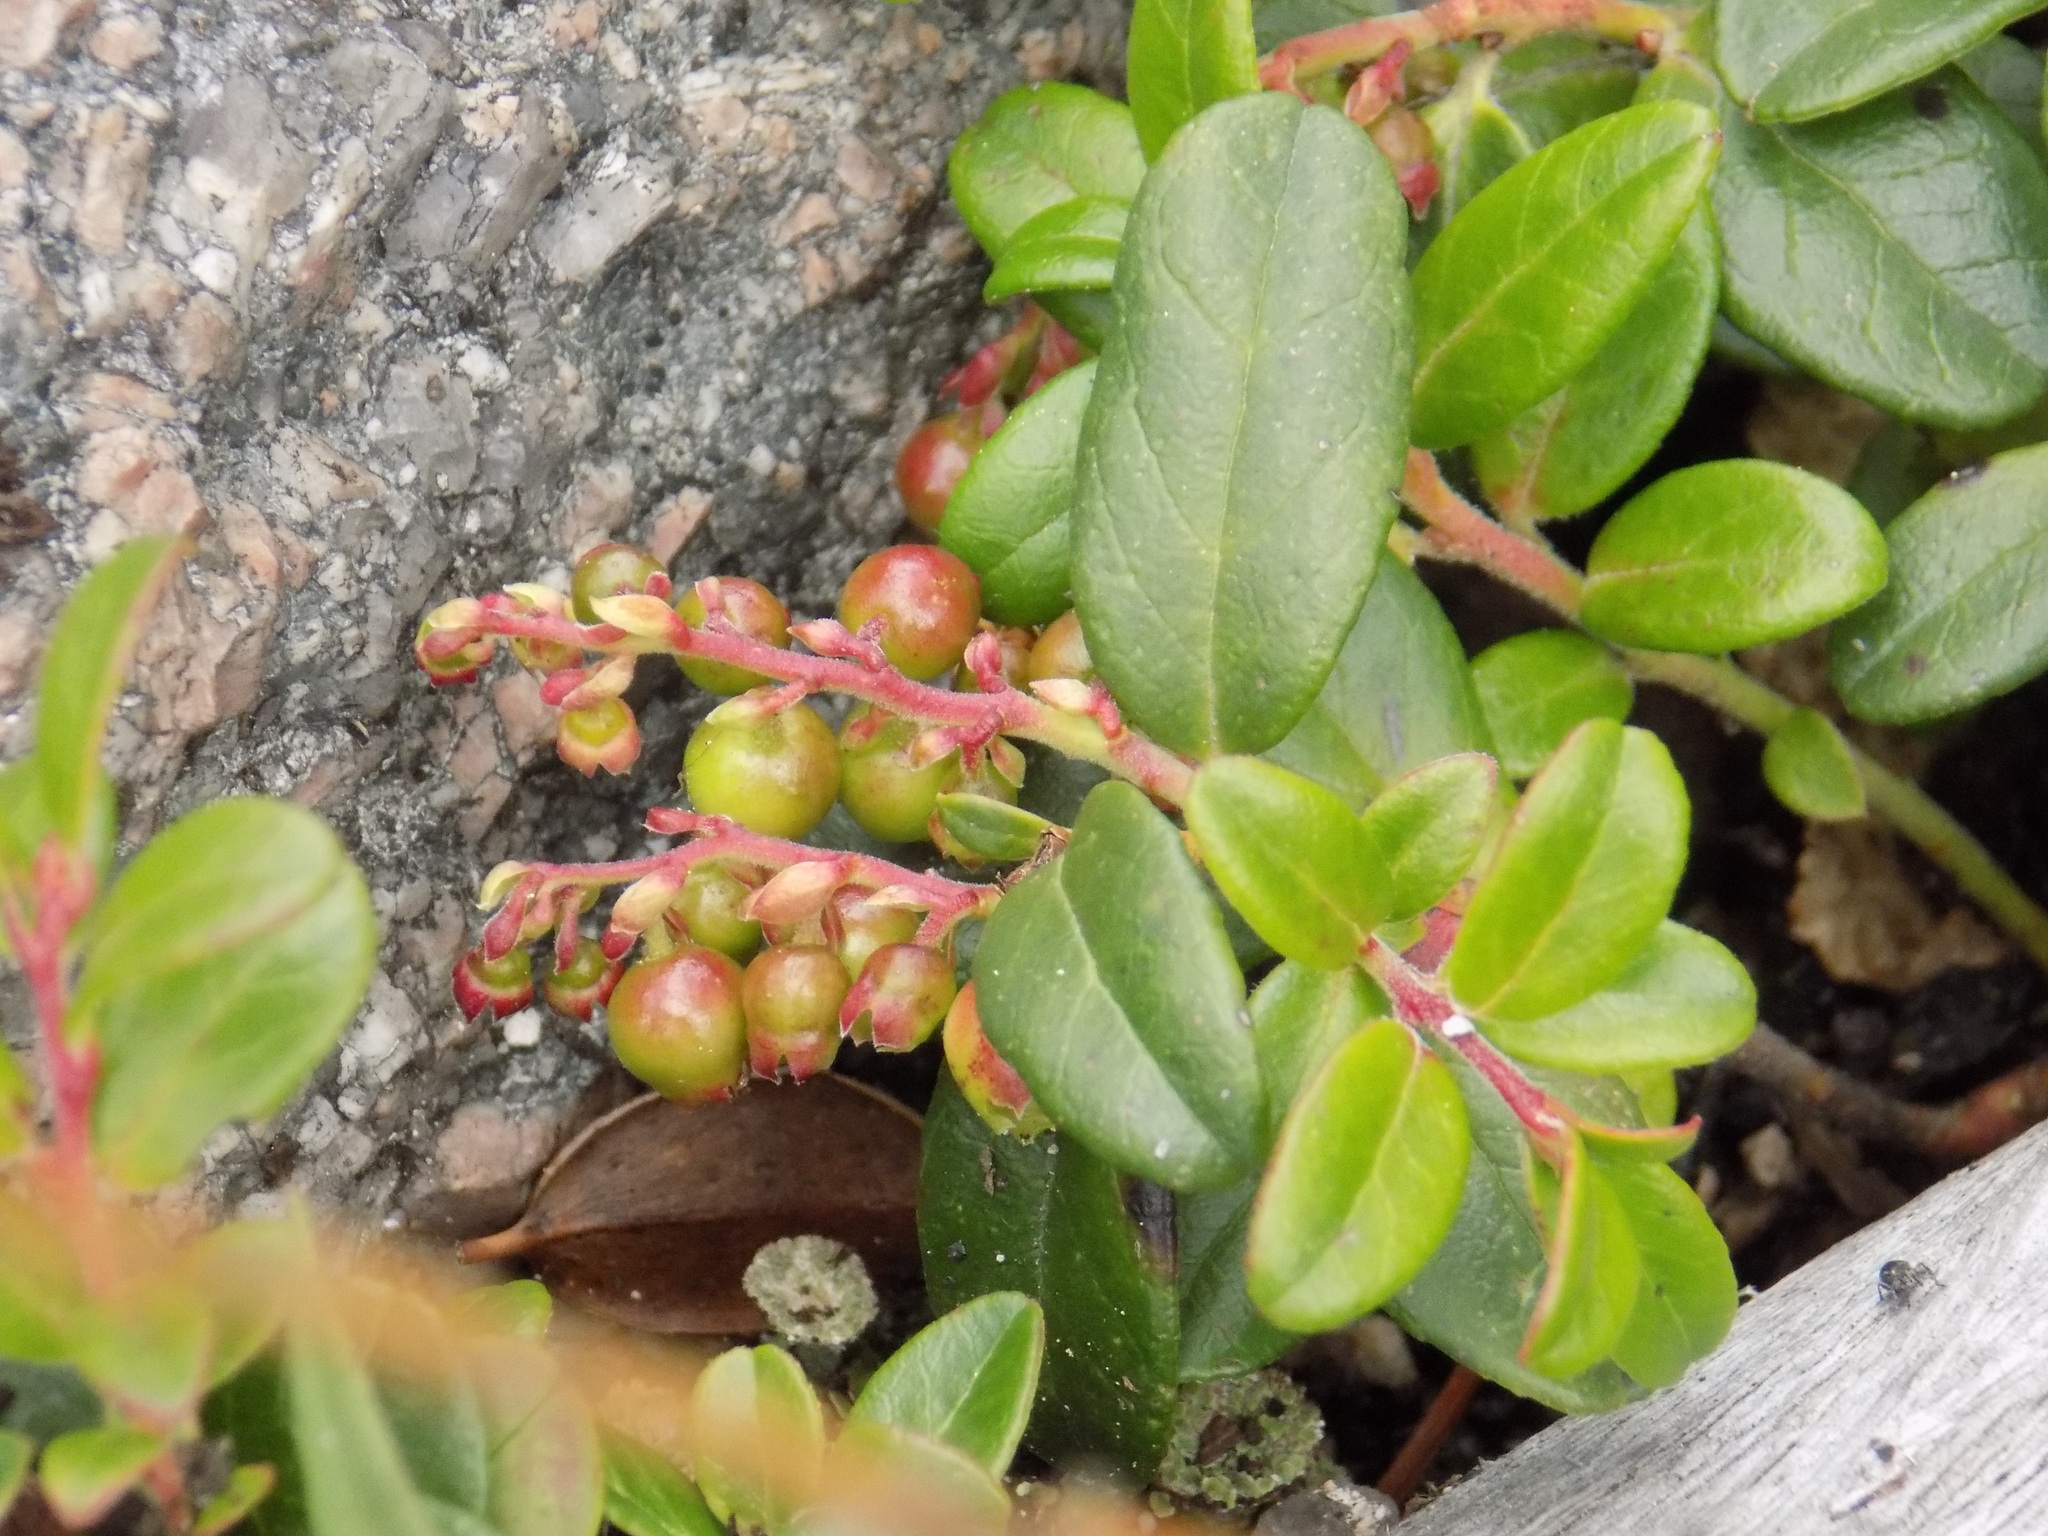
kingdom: Plantae
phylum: Tracheophyta
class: Magnoliopsida
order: Ericales
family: Ericaceae
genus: Vaccinium
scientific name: Vaccinium vitis-idaea
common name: Cowberry
